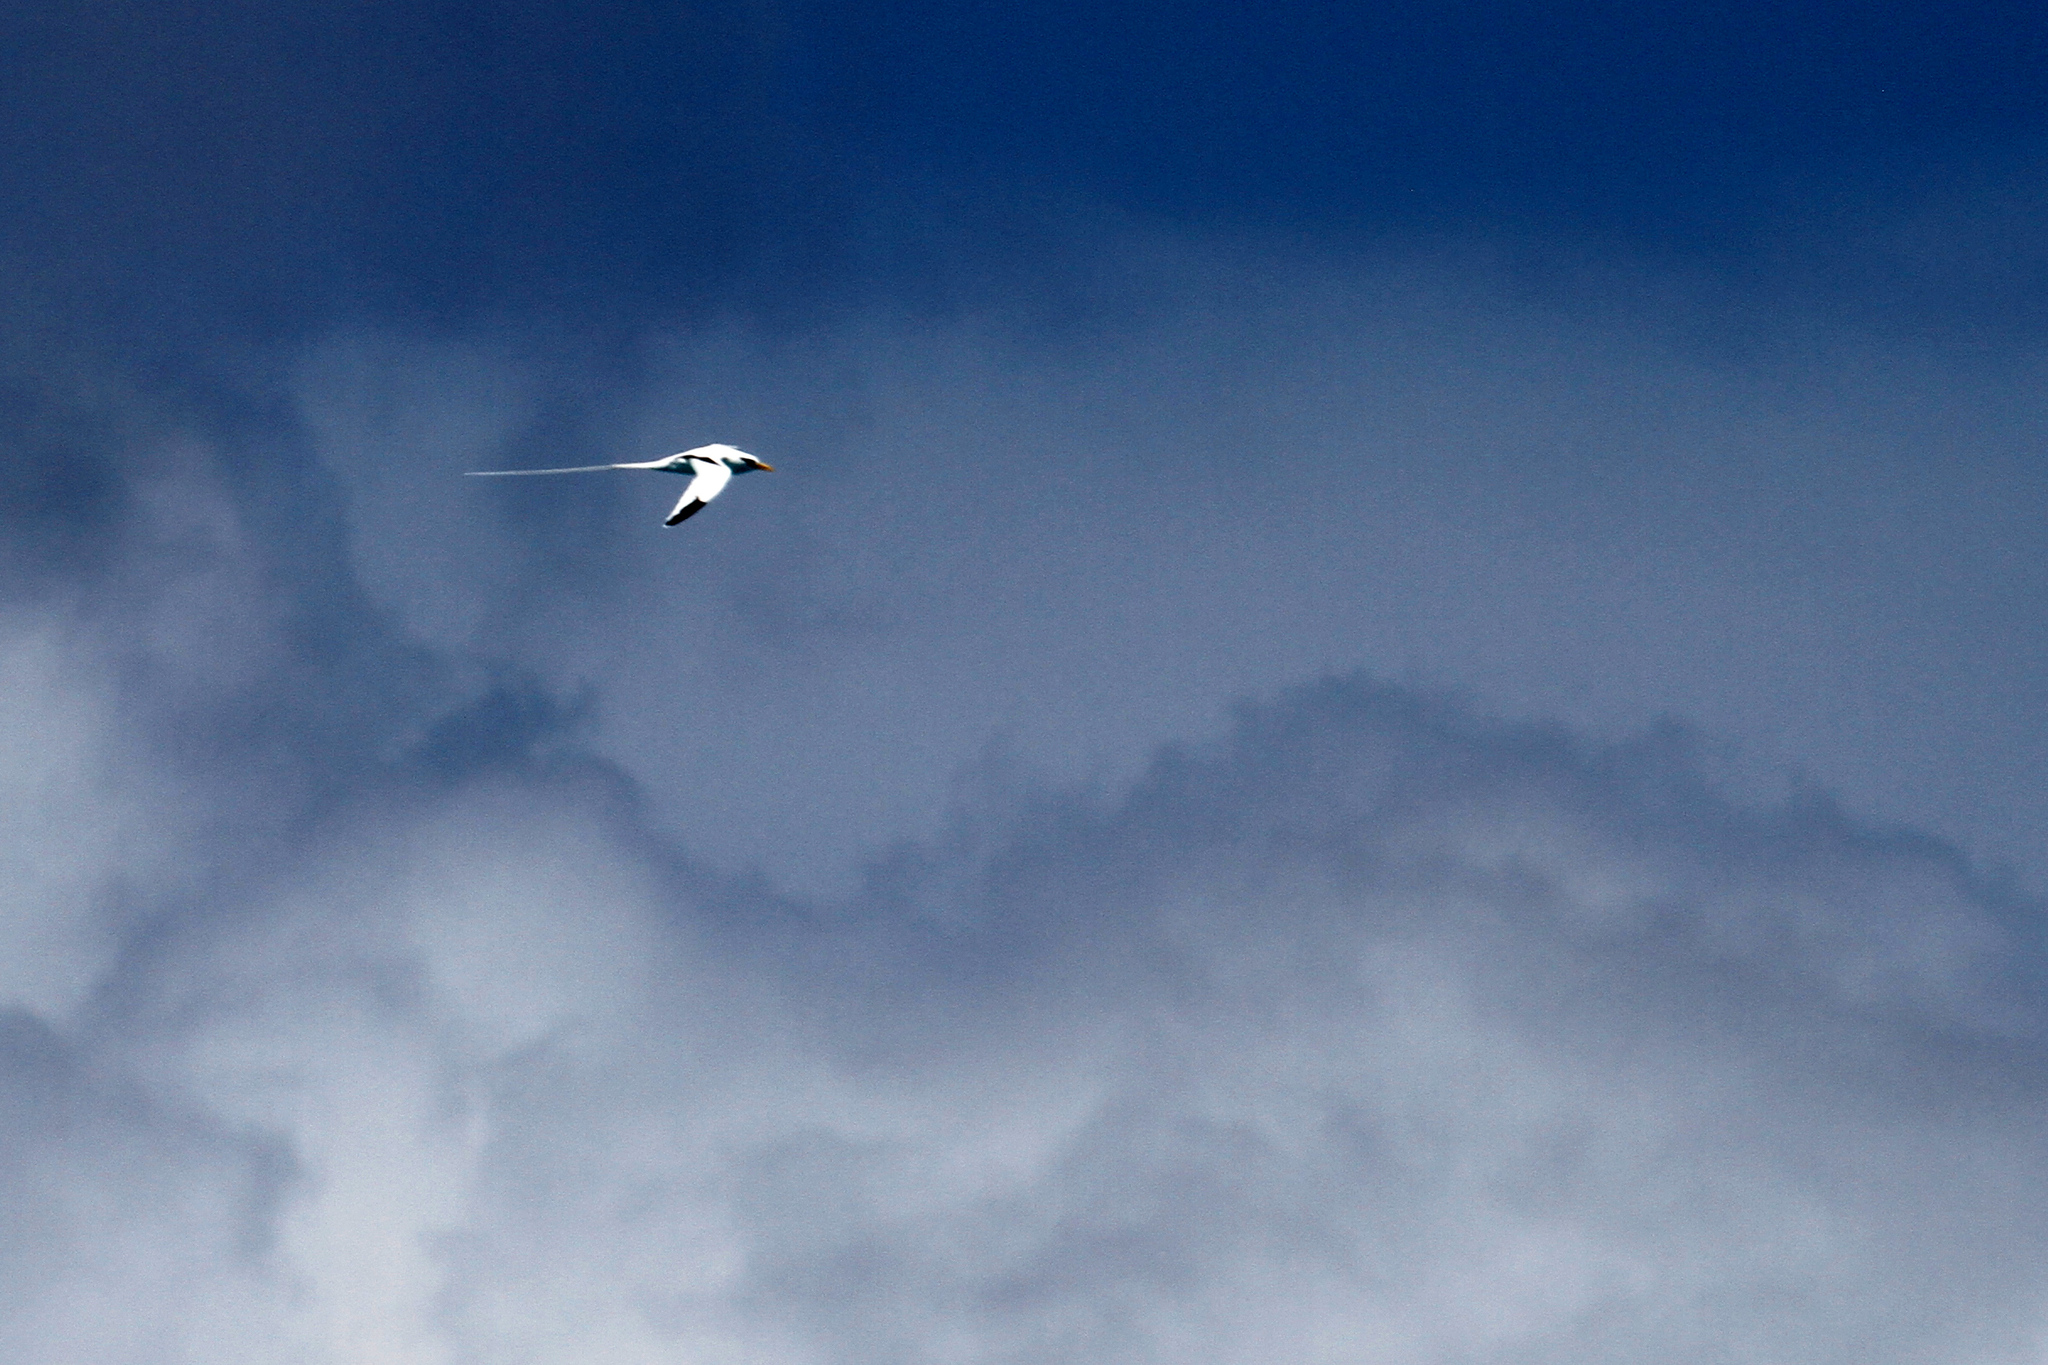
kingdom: Animalia
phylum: Chordata
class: Aves
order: Phaethontiformes
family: Phaethontidae
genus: Phaethon
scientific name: Phaethon lepturus
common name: White-tailed tropicbird
